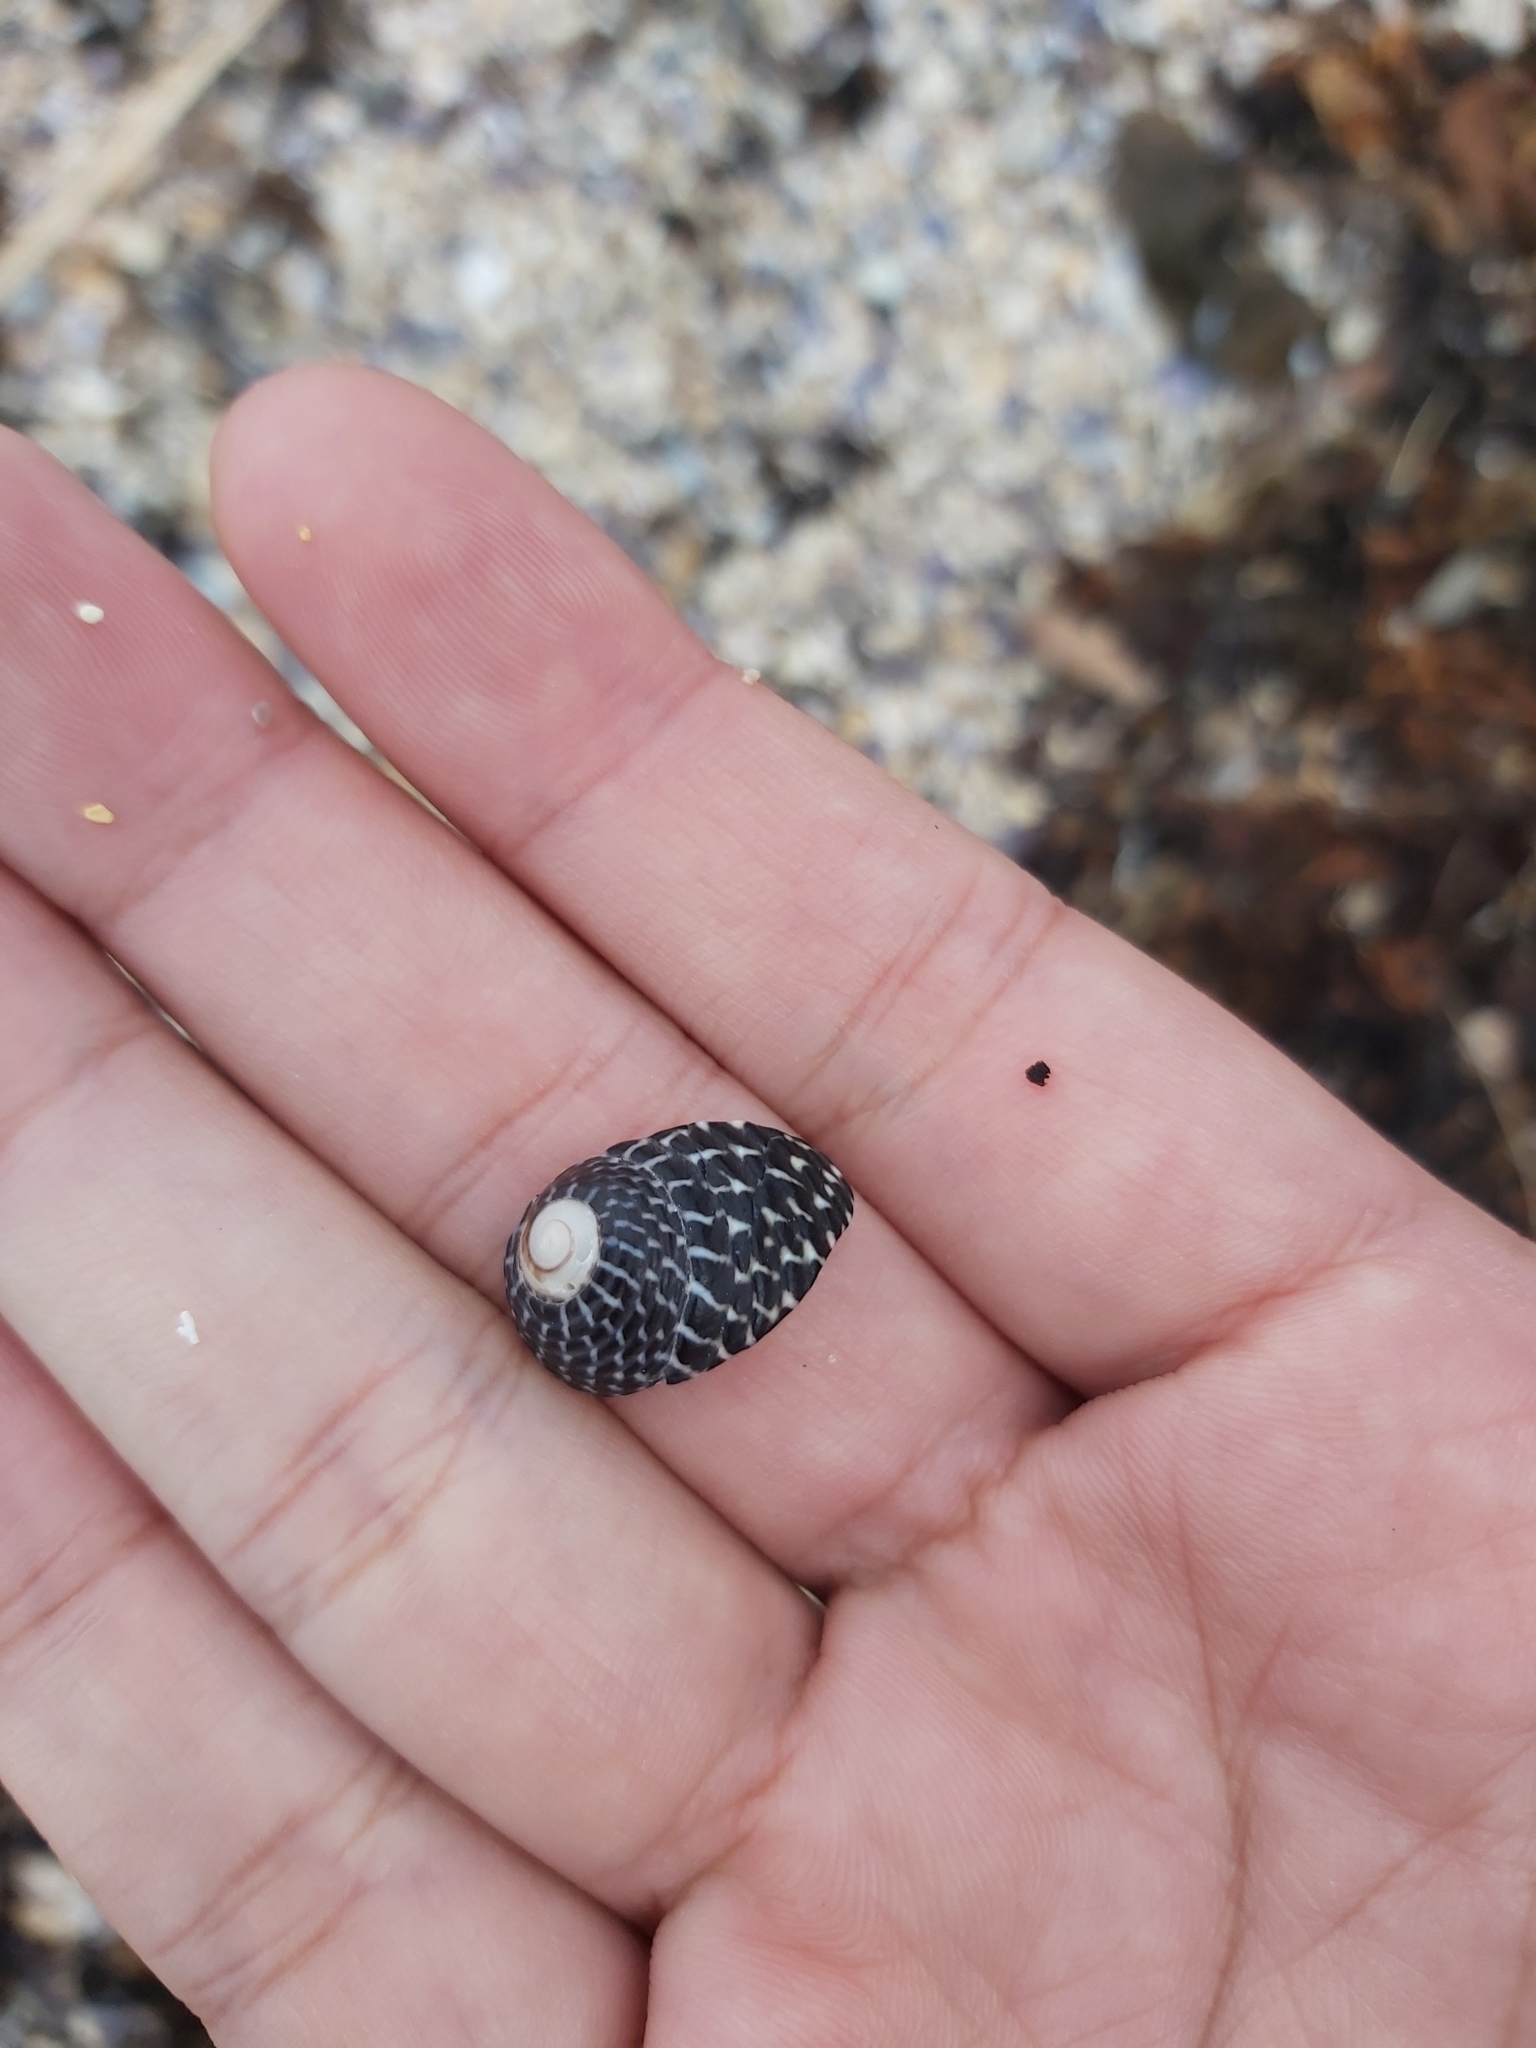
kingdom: Animalia
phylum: Mollusca
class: Gastropoda
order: Trochida
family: Trochidae
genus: Austrocochlea
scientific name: Austrocochlea porcata
